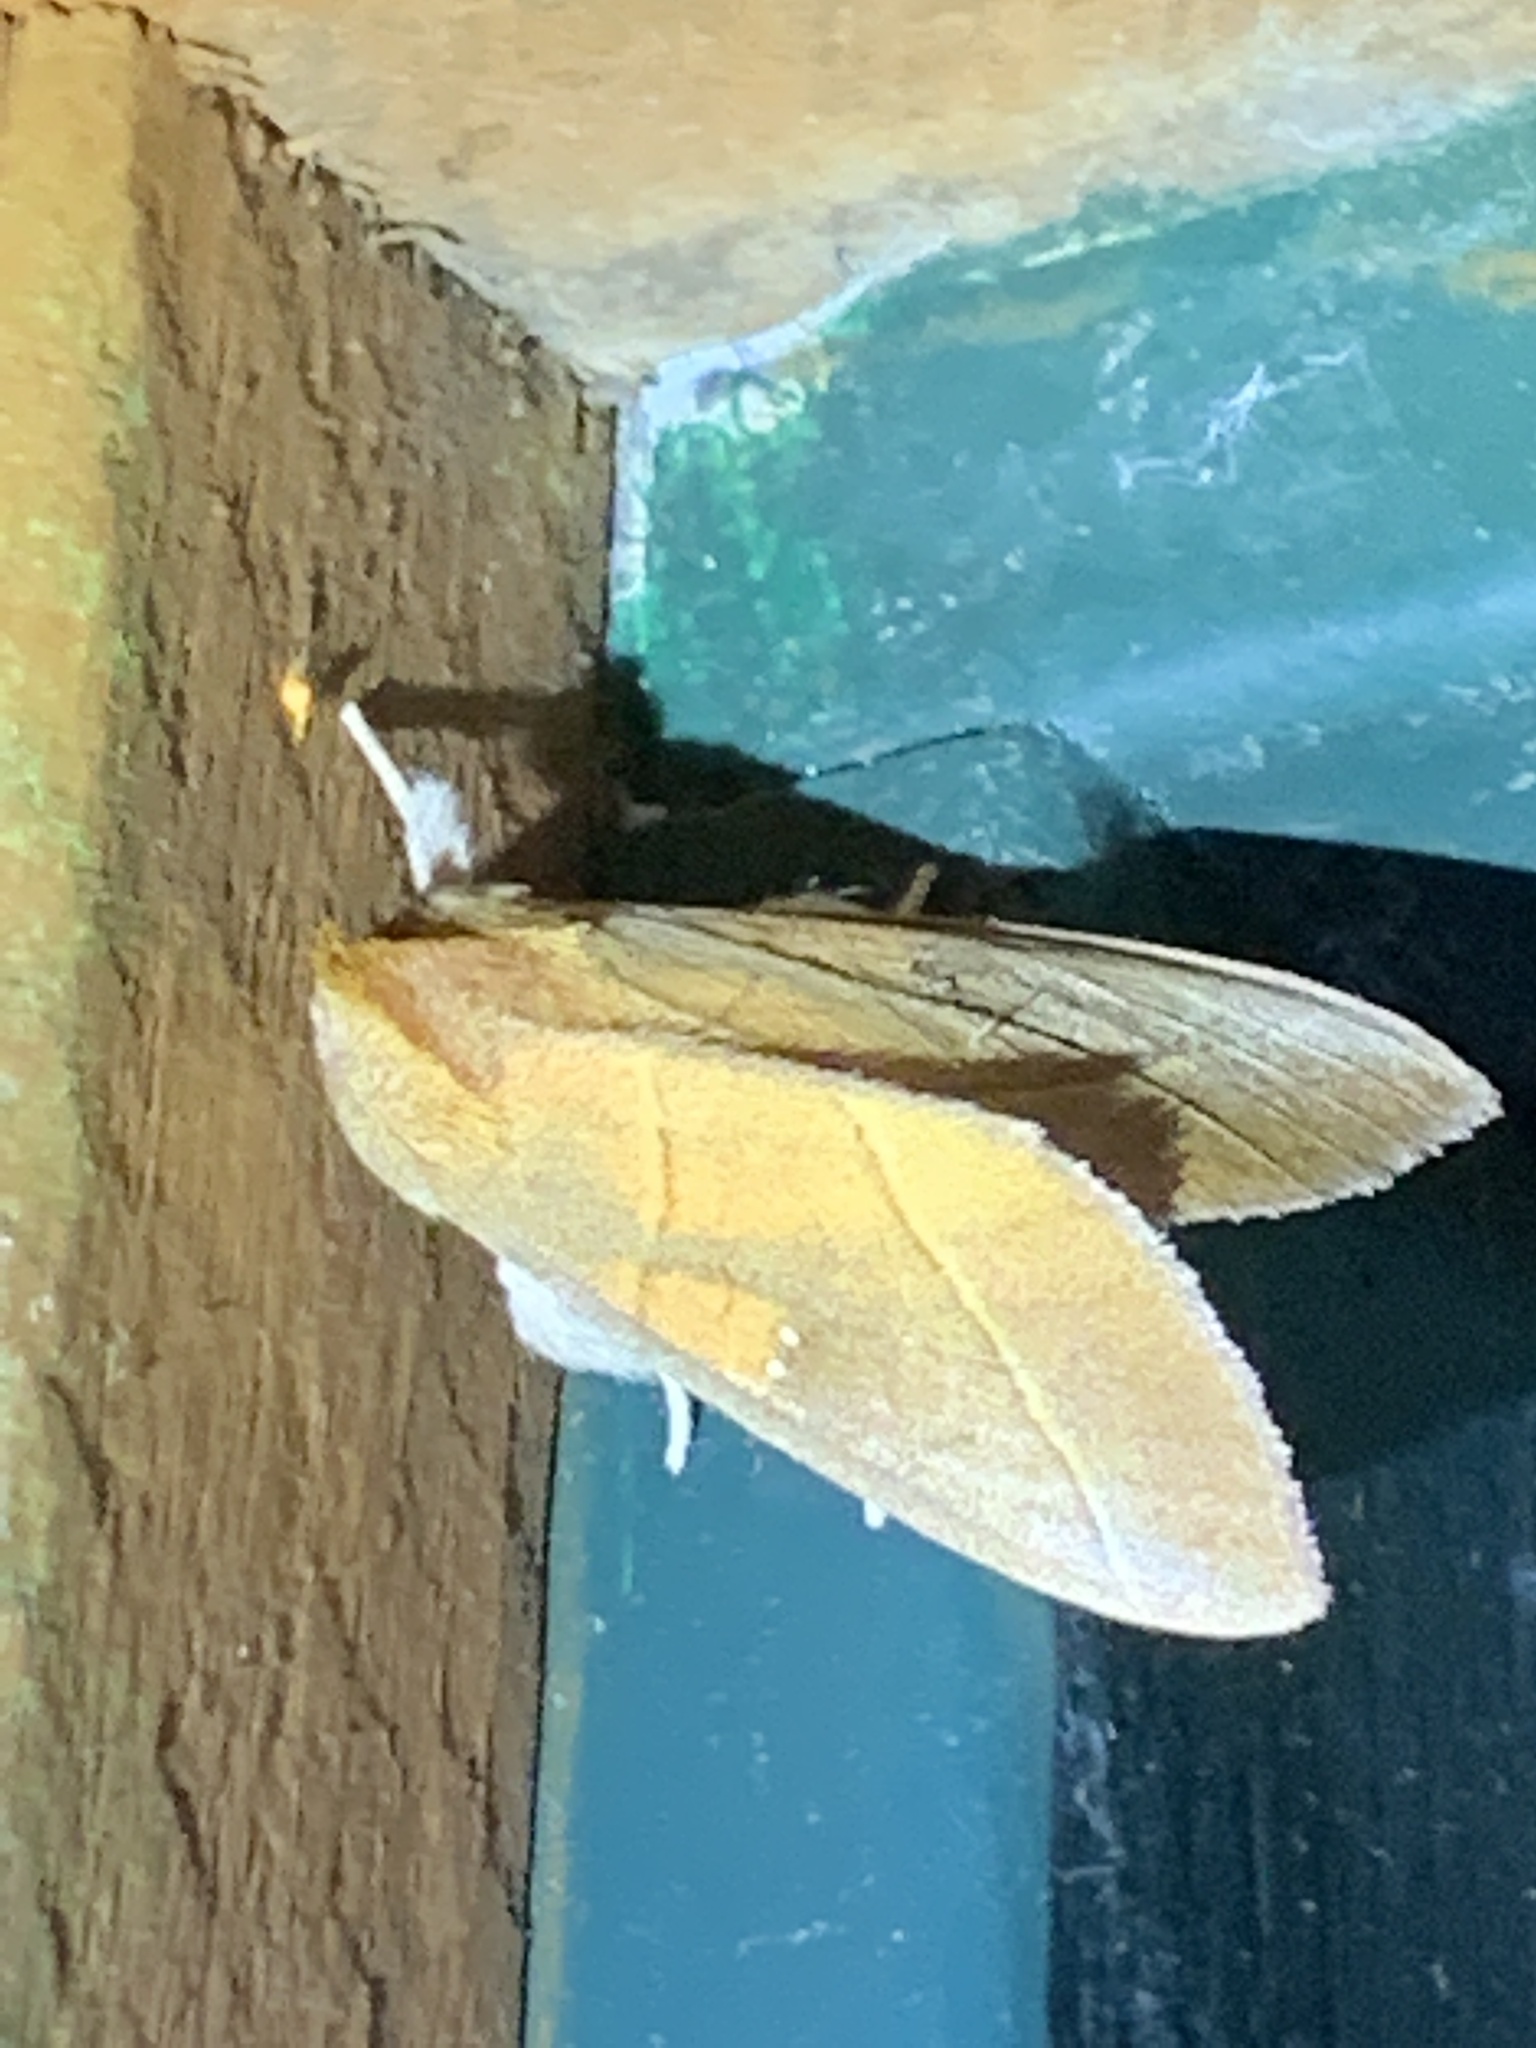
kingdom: Animalia
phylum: Arthropoda
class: Insecta
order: Lepidoptera
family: Notodontidae
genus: Nadata
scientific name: Nadata gibbosa
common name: White-dotted prominent
